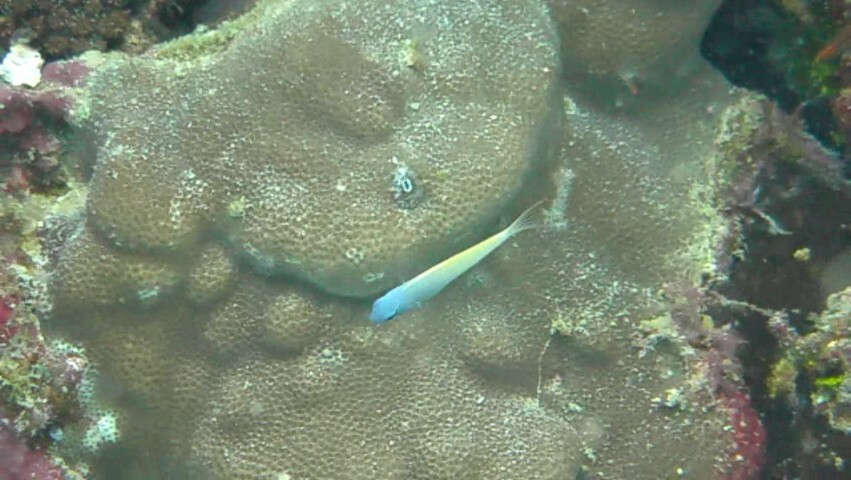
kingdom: Animalia
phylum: Chordata
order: Perciformes
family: Blenniidae
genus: Meiacanthus
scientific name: Meiacanthus atrodorsalis
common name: Eye-lash harptail-blenny
